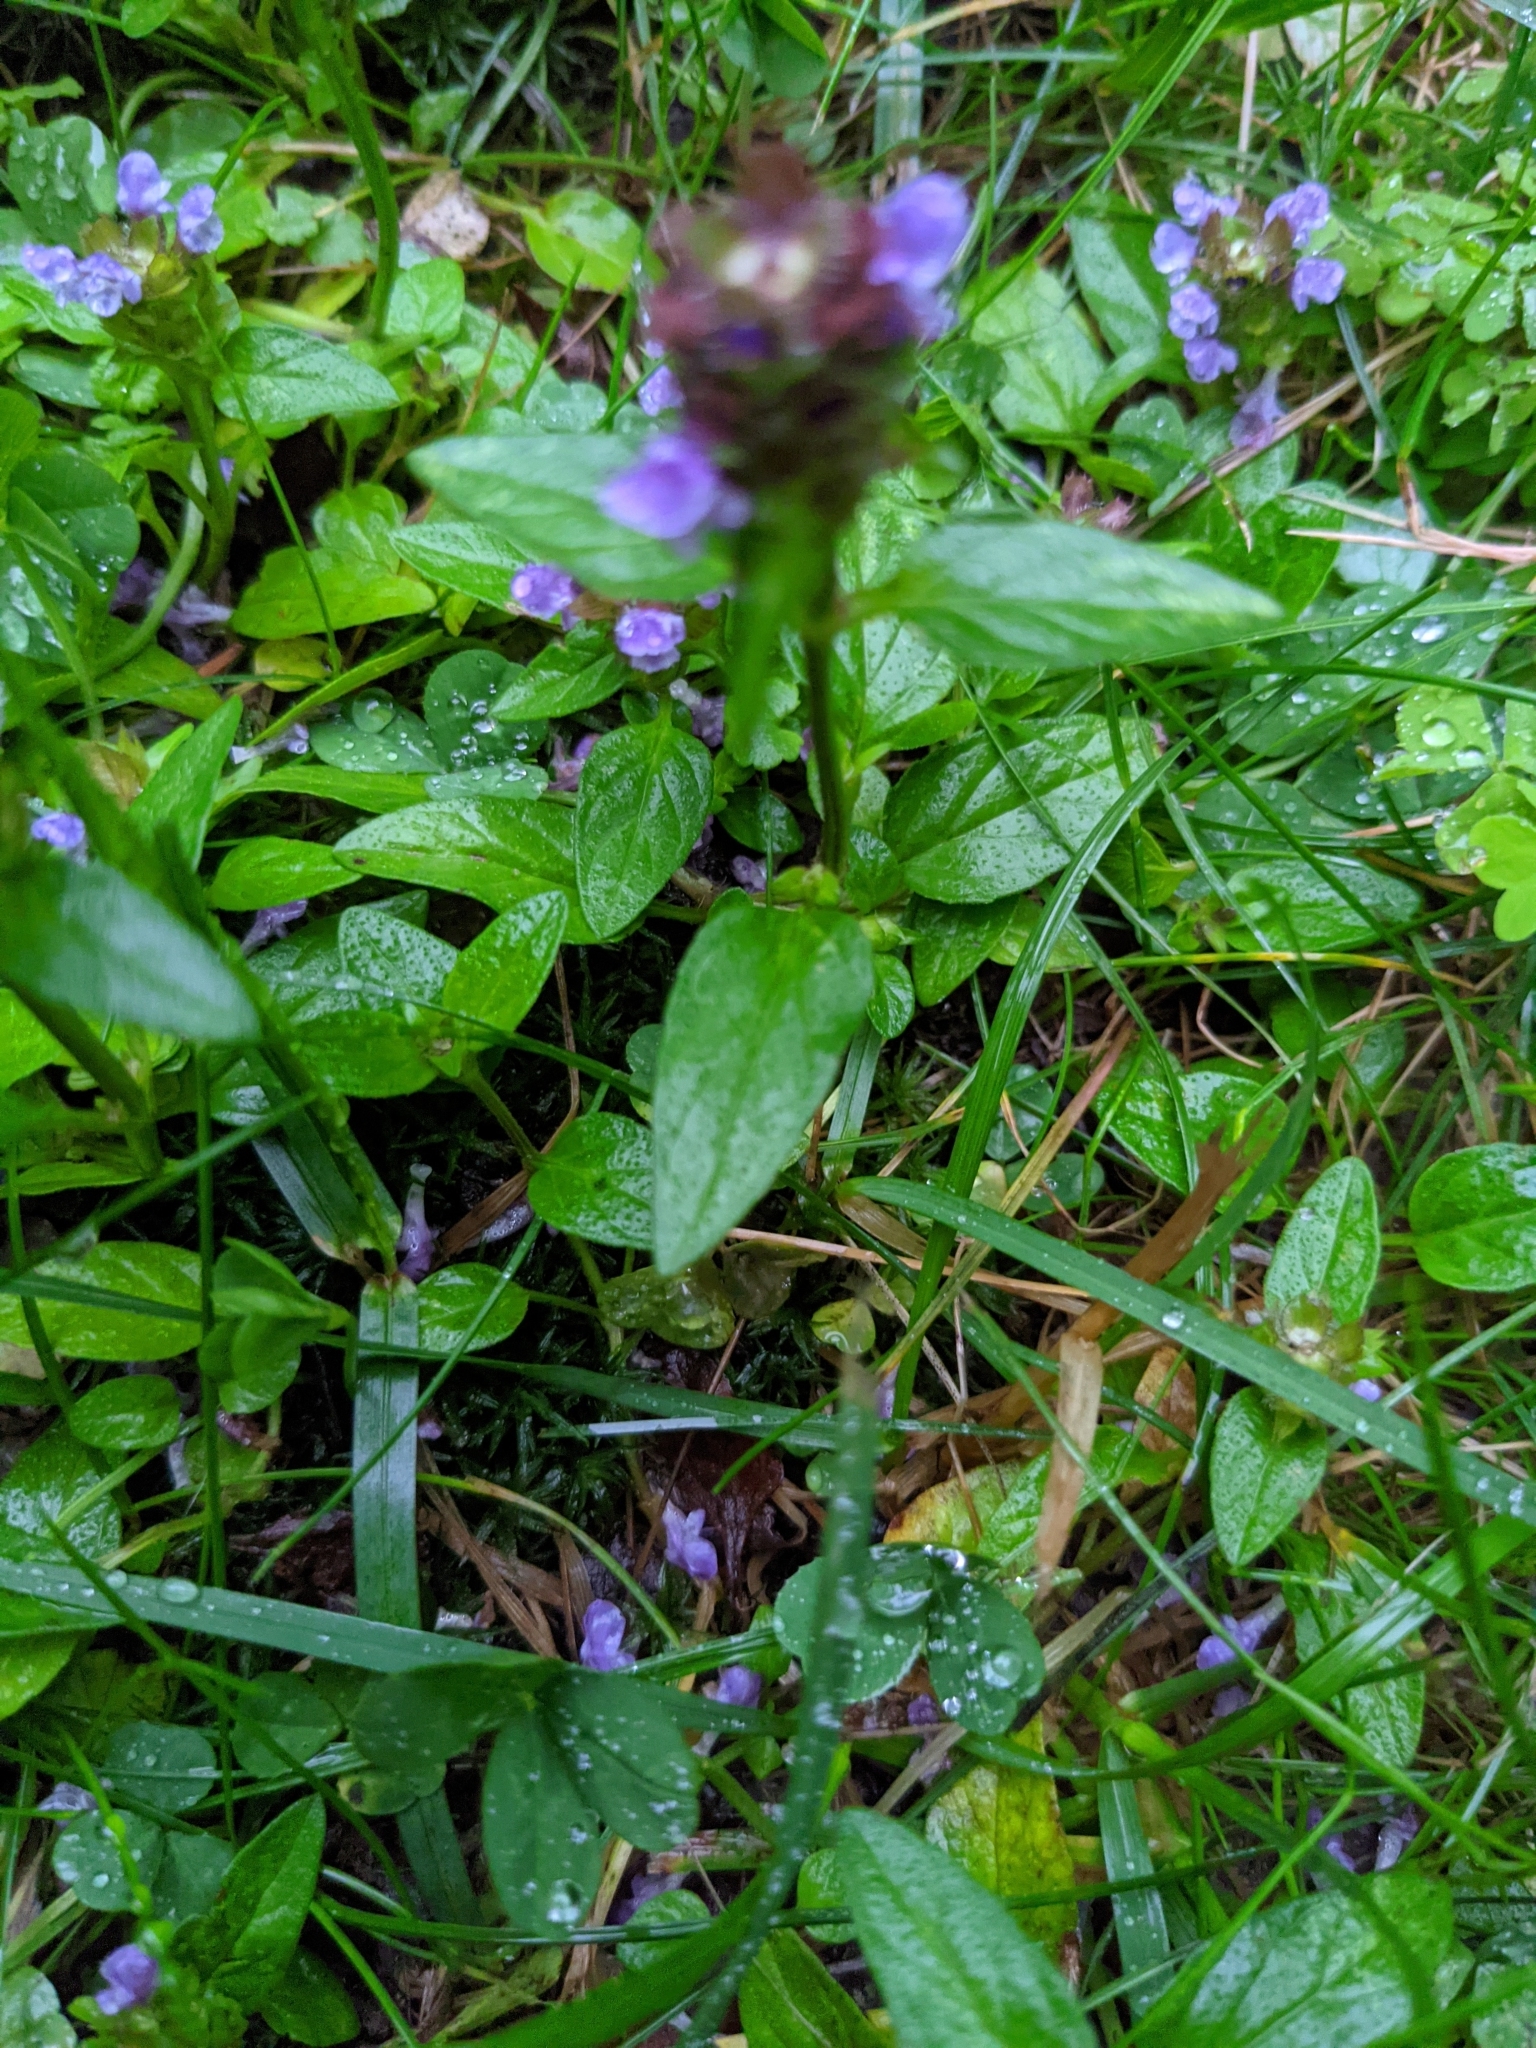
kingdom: Plantae
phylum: Tracheophyta
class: Magnoliopsida
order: Lamiales
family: Lamiaceae
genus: Prunella
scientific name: Prunella vulgaris
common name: Heal-all
